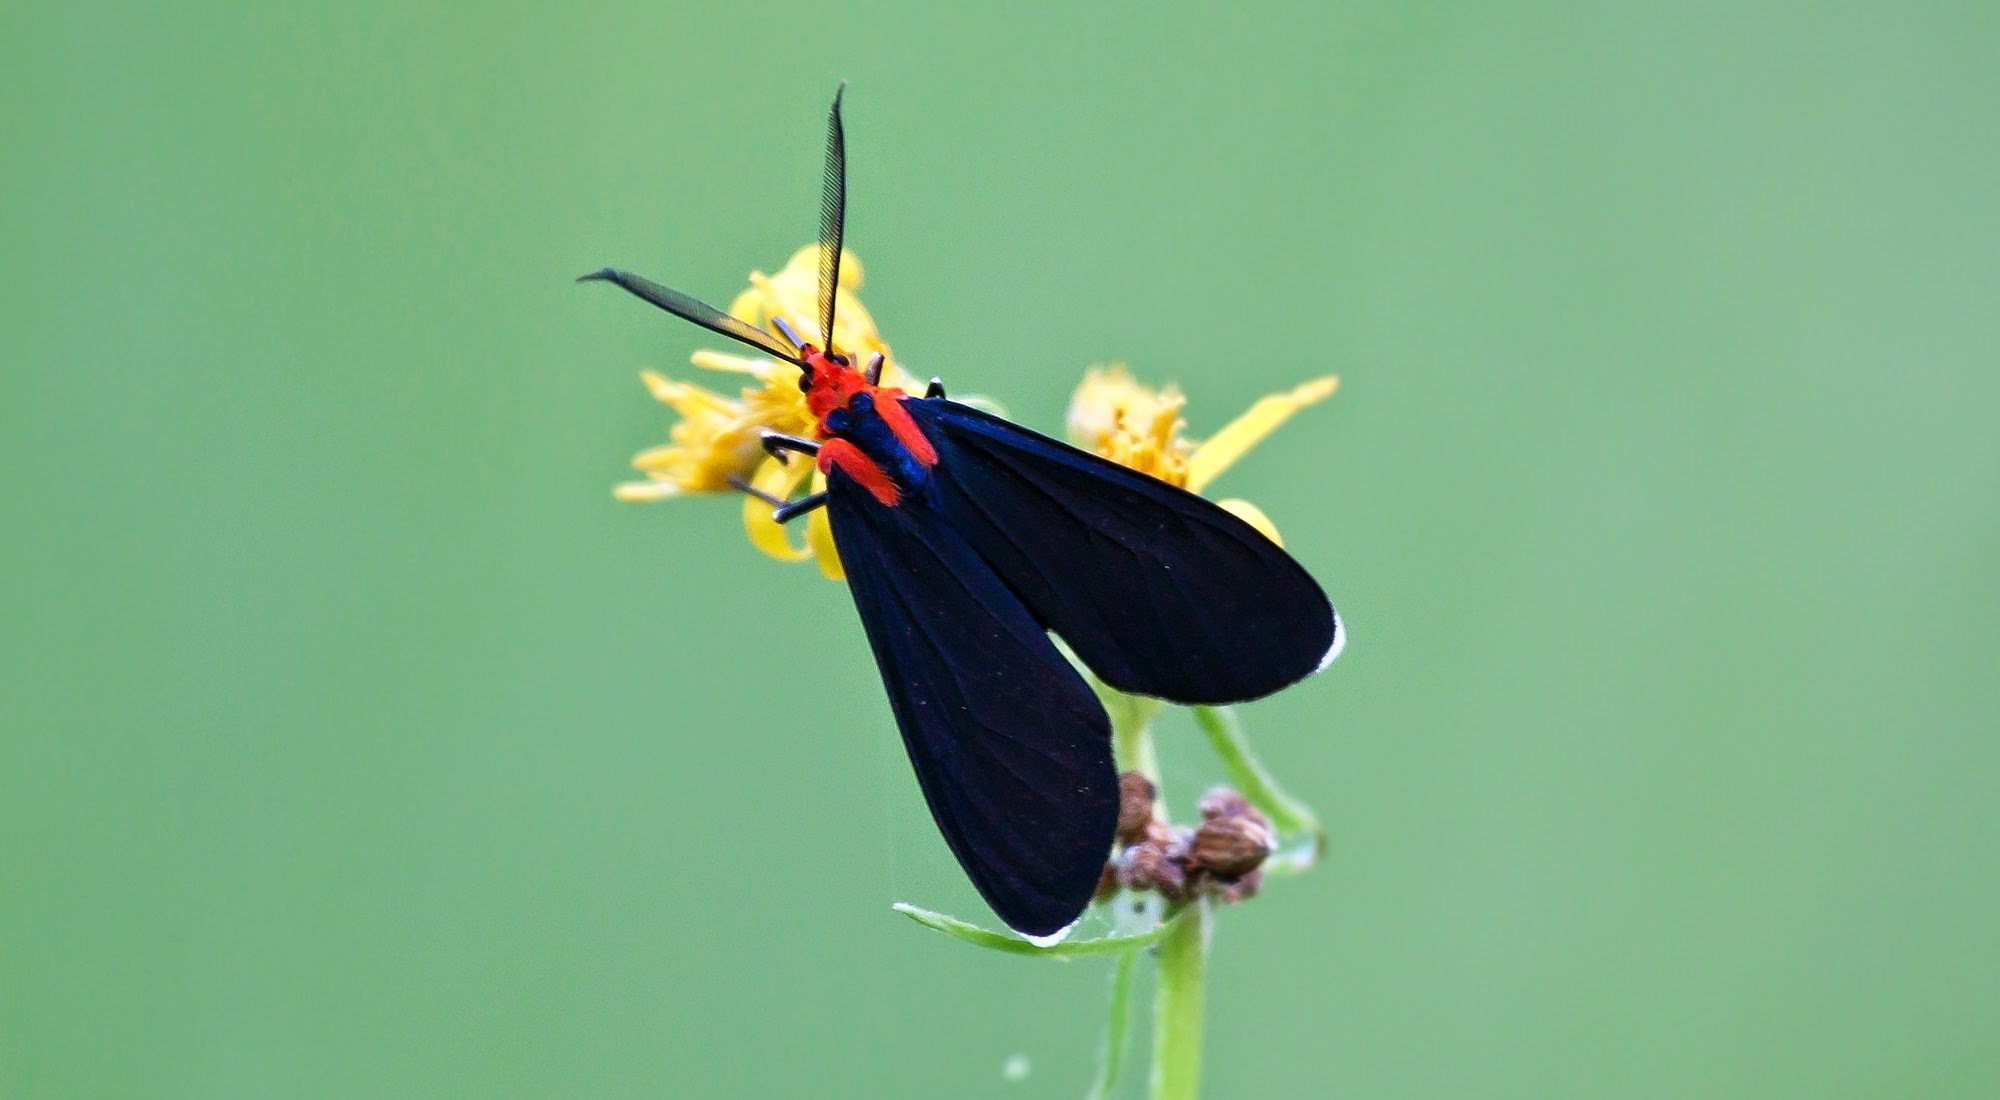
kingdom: Animalia
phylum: Arthropoda
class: Insecta
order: Lepidoptera
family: Erebidae
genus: Ctenucha
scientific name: Ctenucha rubroscapus
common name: Red-shouldered ctenucha
